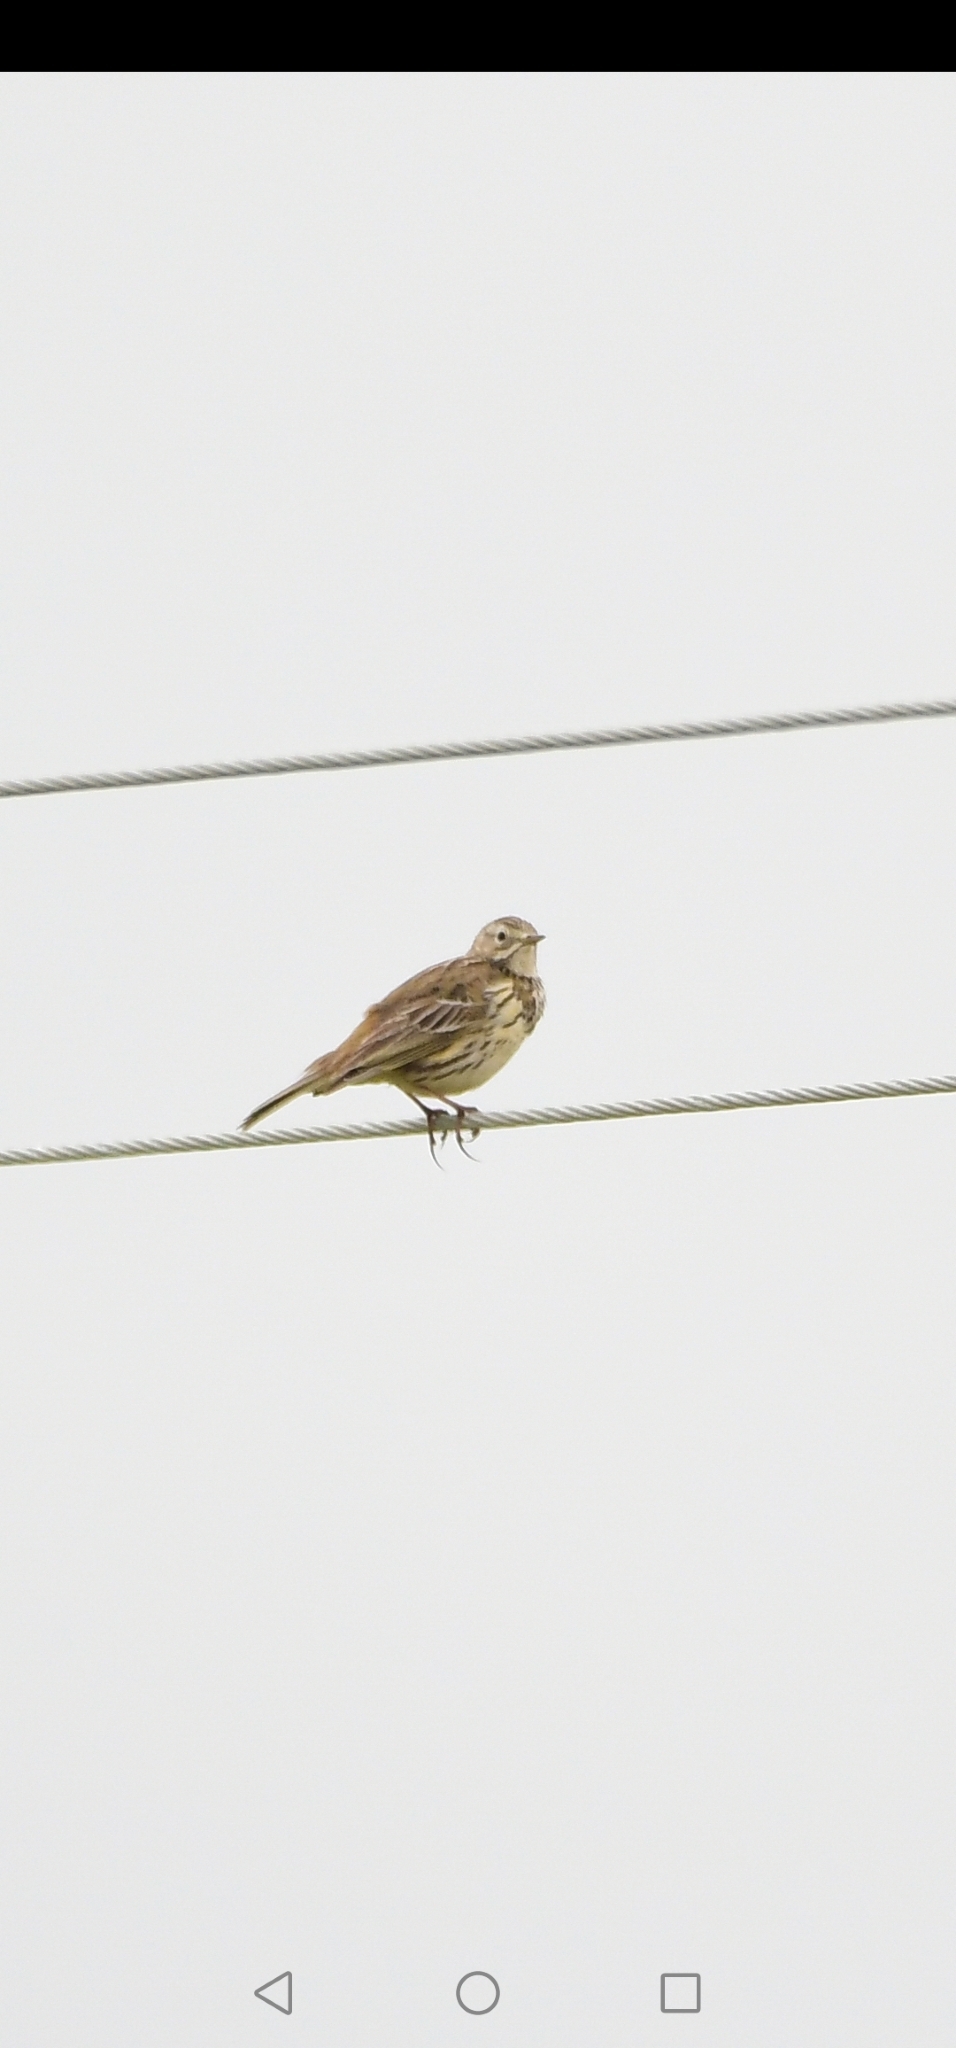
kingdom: Animalia
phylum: Chordata
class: Aves
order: Passeriformes
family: Motacillidae
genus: Anthus
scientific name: Anthus pratensis
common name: Meadow pipit
